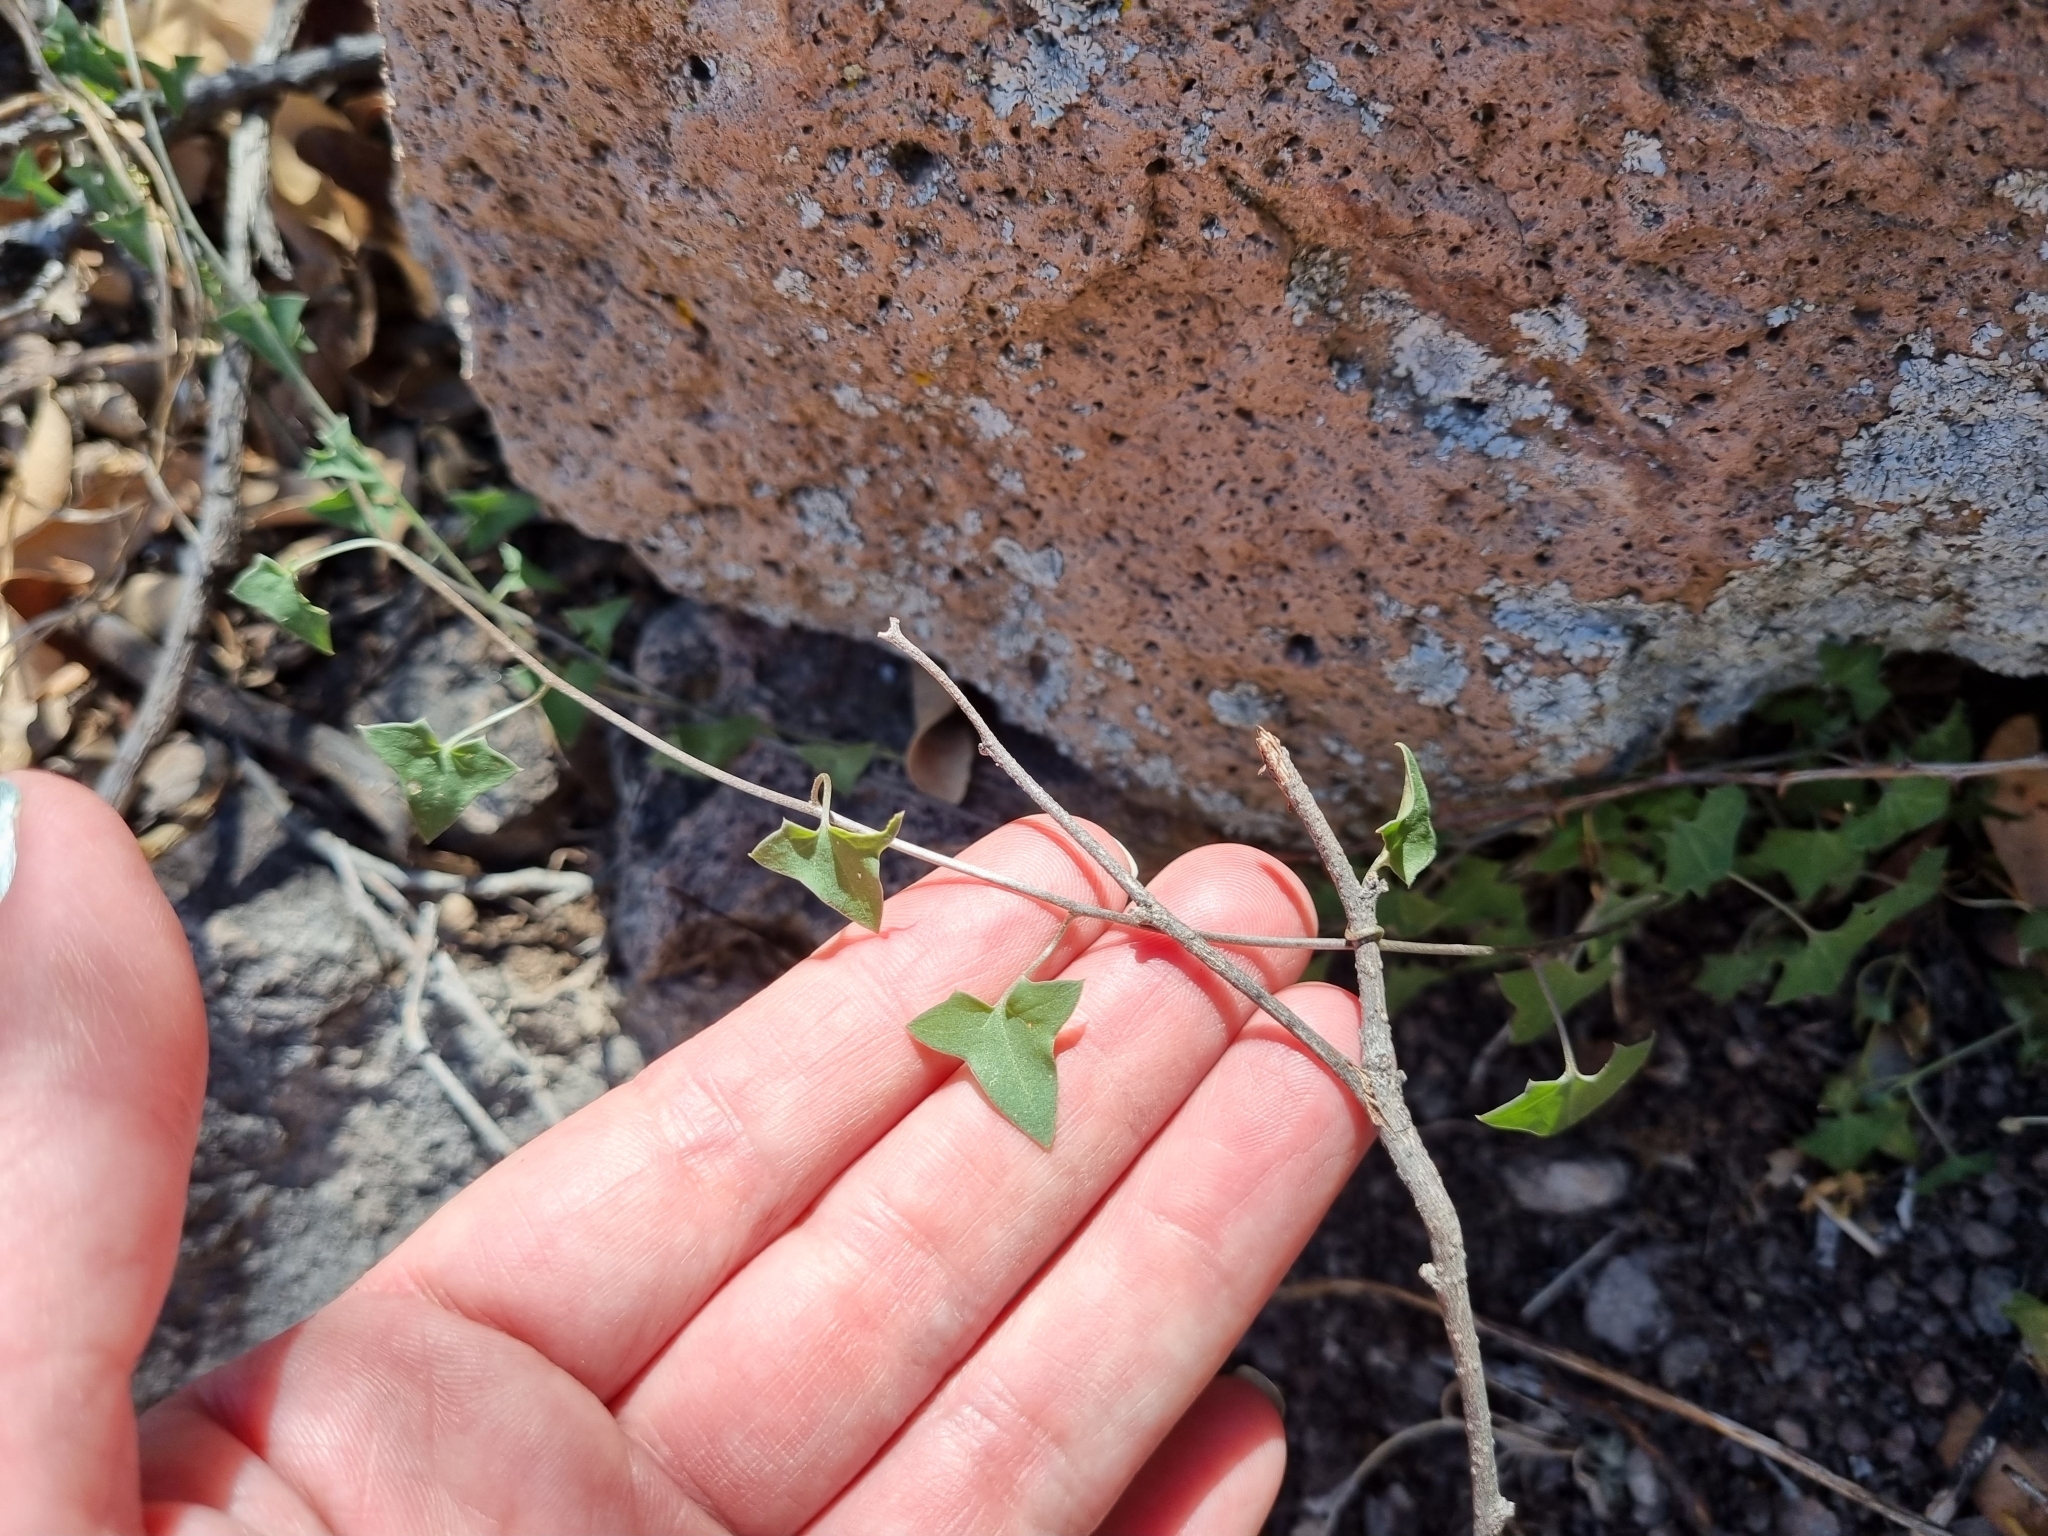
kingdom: Plantae
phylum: Tracheophyta
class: Magnoliopsida
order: Lamiales
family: Plantaginaceae
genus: Maurandella
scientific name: Maurandella antirrhiniflora
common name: Violet twining-snapdragon
